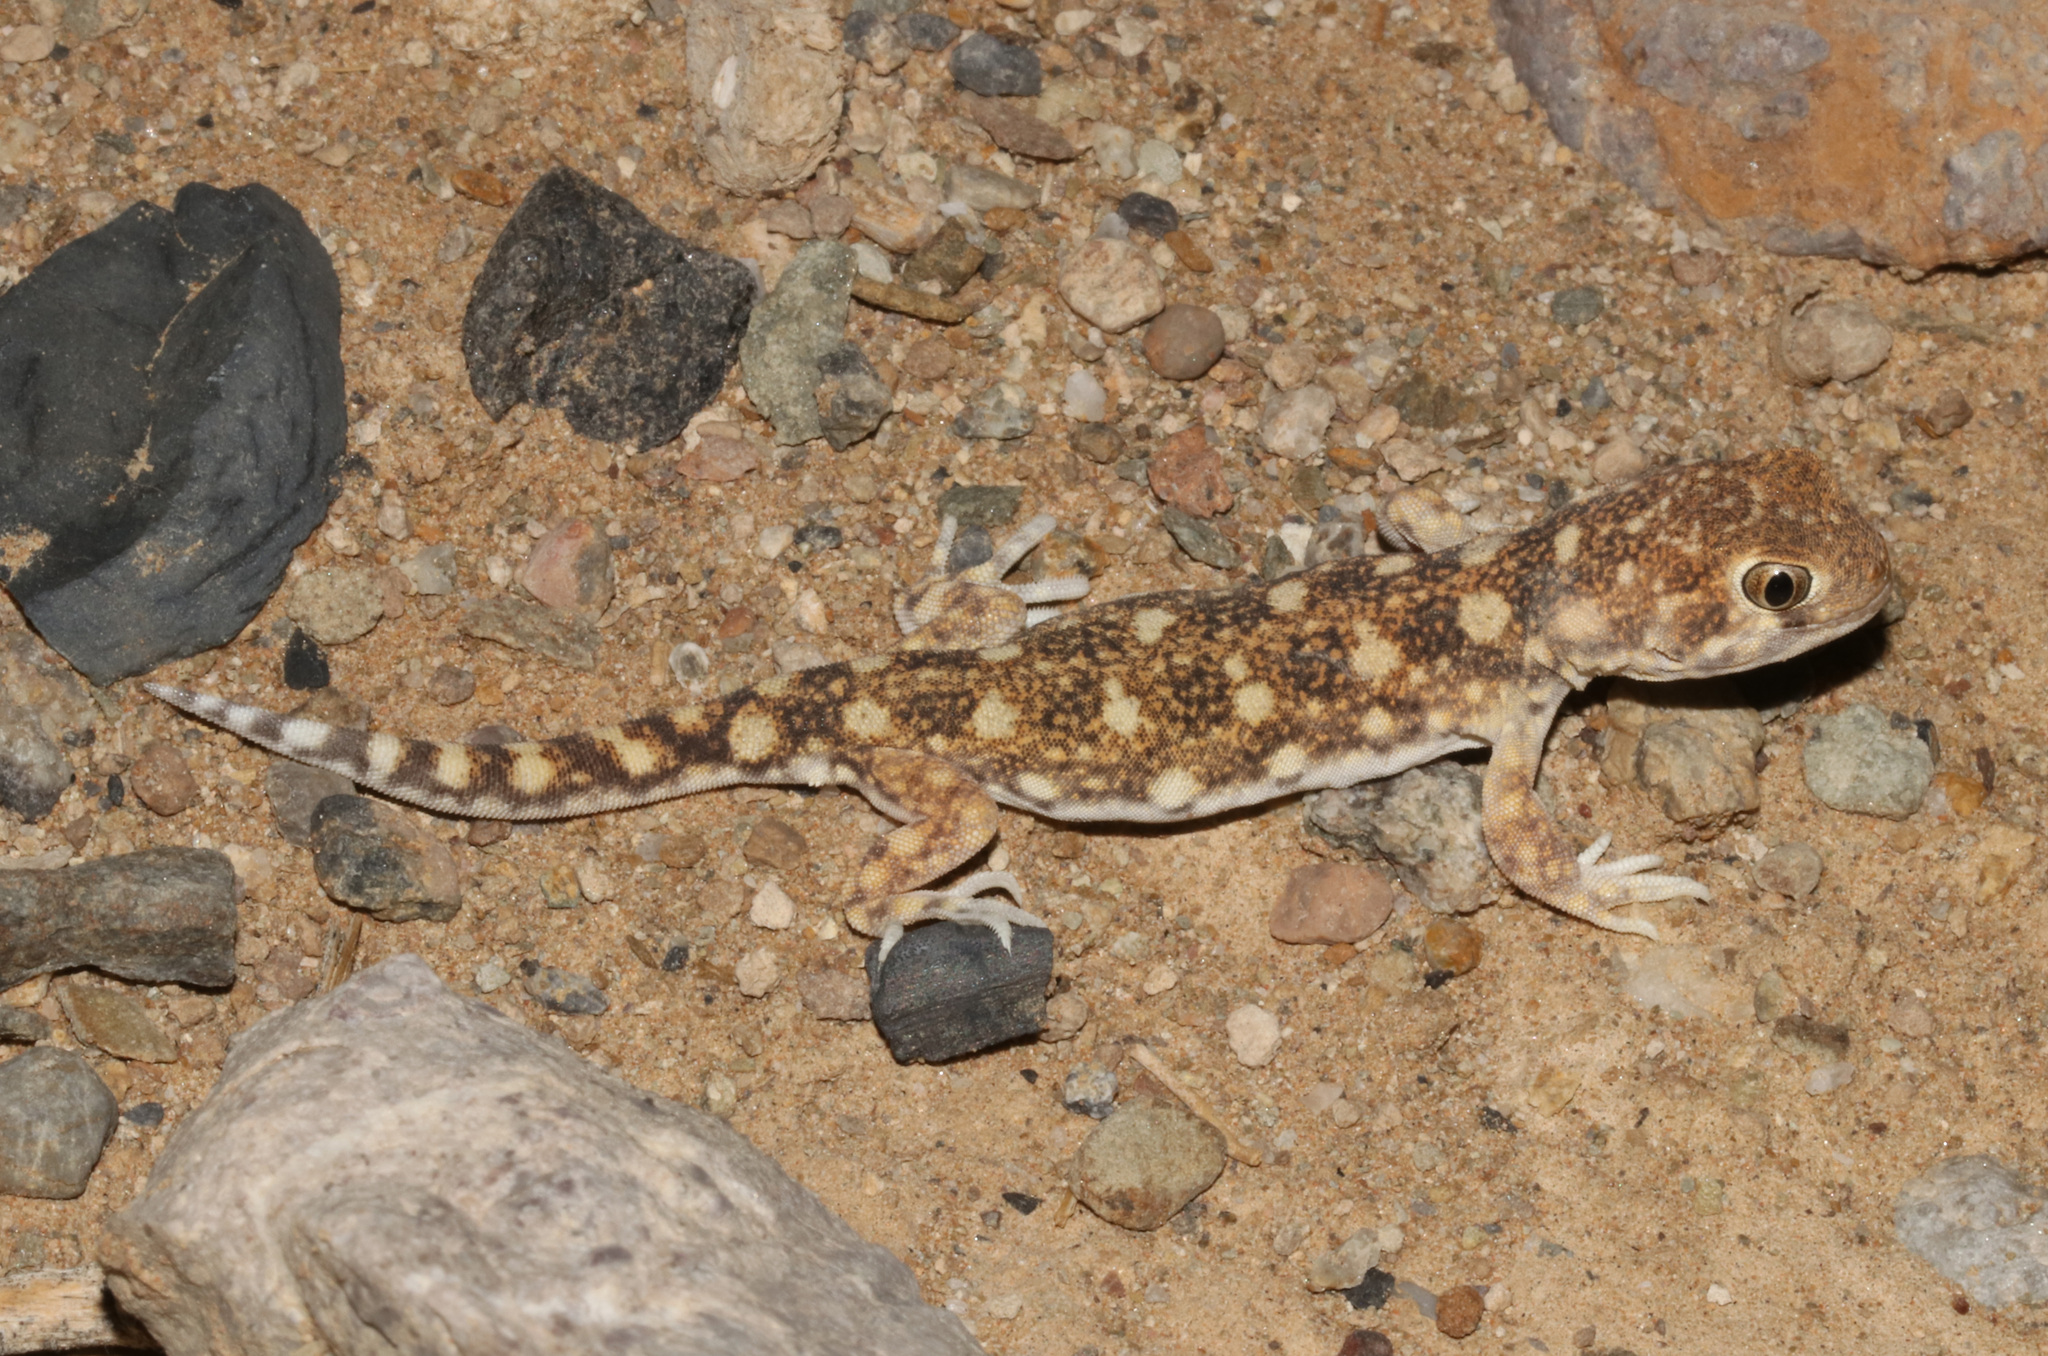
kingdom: Animalia
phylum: Chordata
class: Squamata
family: Gekkonidae
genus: Ptenopus
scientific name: Ptenopus garrulus
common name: Whistling gecko
